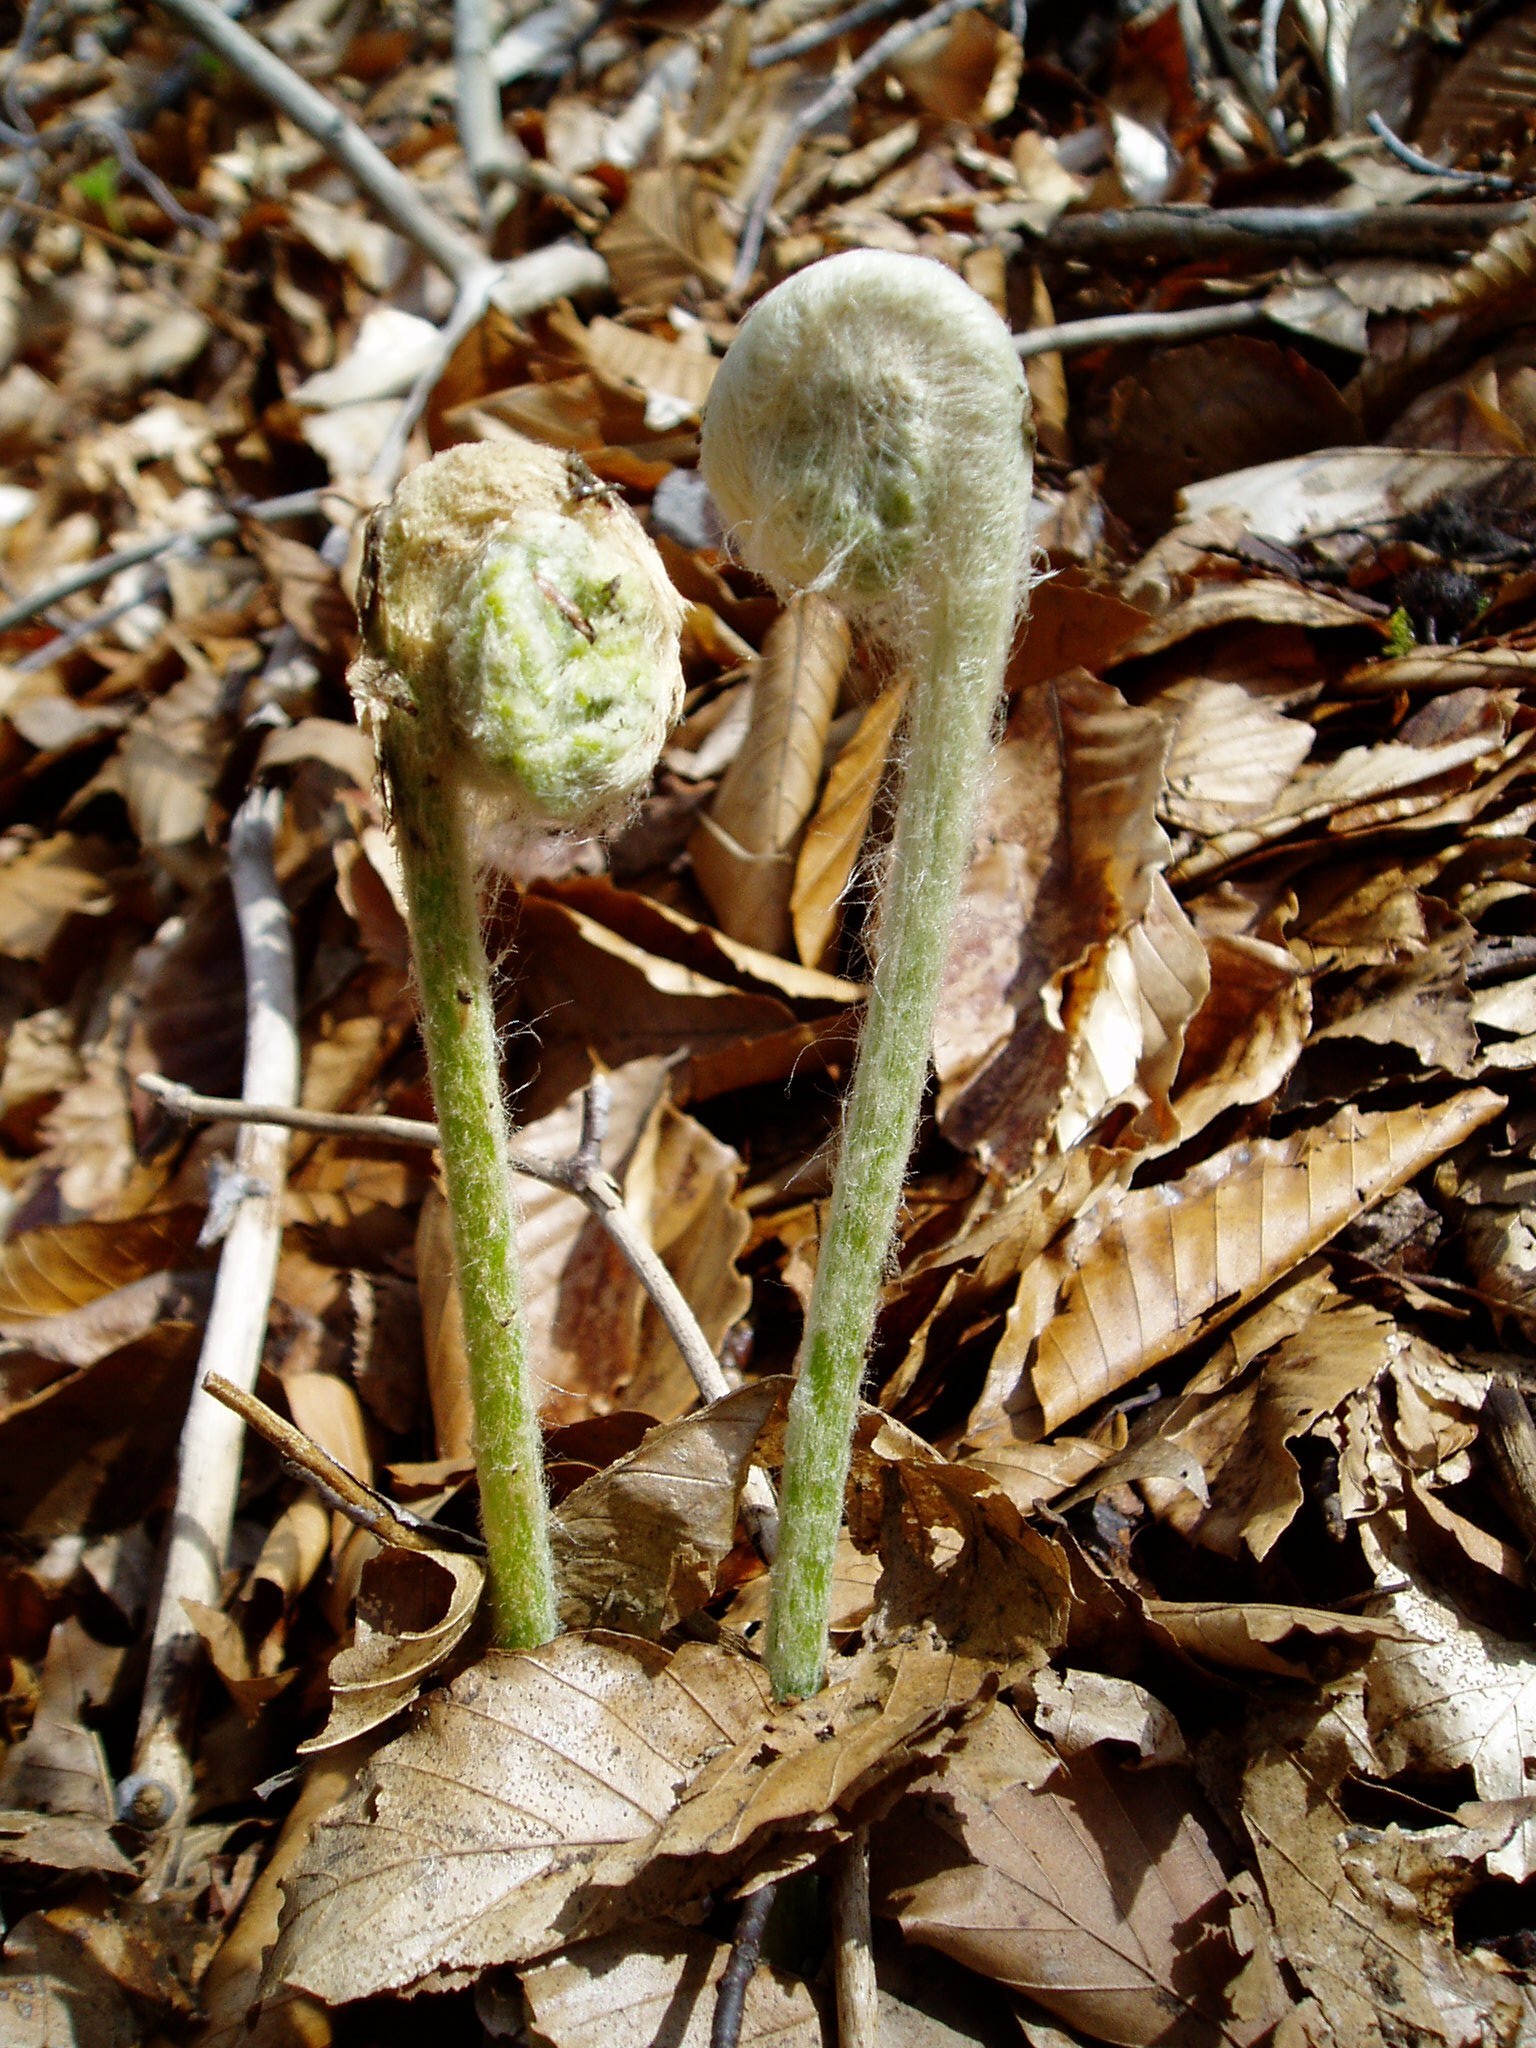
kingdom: Plantae
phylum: Tracheophyta
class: Polypodiopsida
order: Osmundales
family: Osmundaceae
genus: Osmundastrum
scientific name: Osmundastrum cinnamomeum
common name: Cinnamon fern
